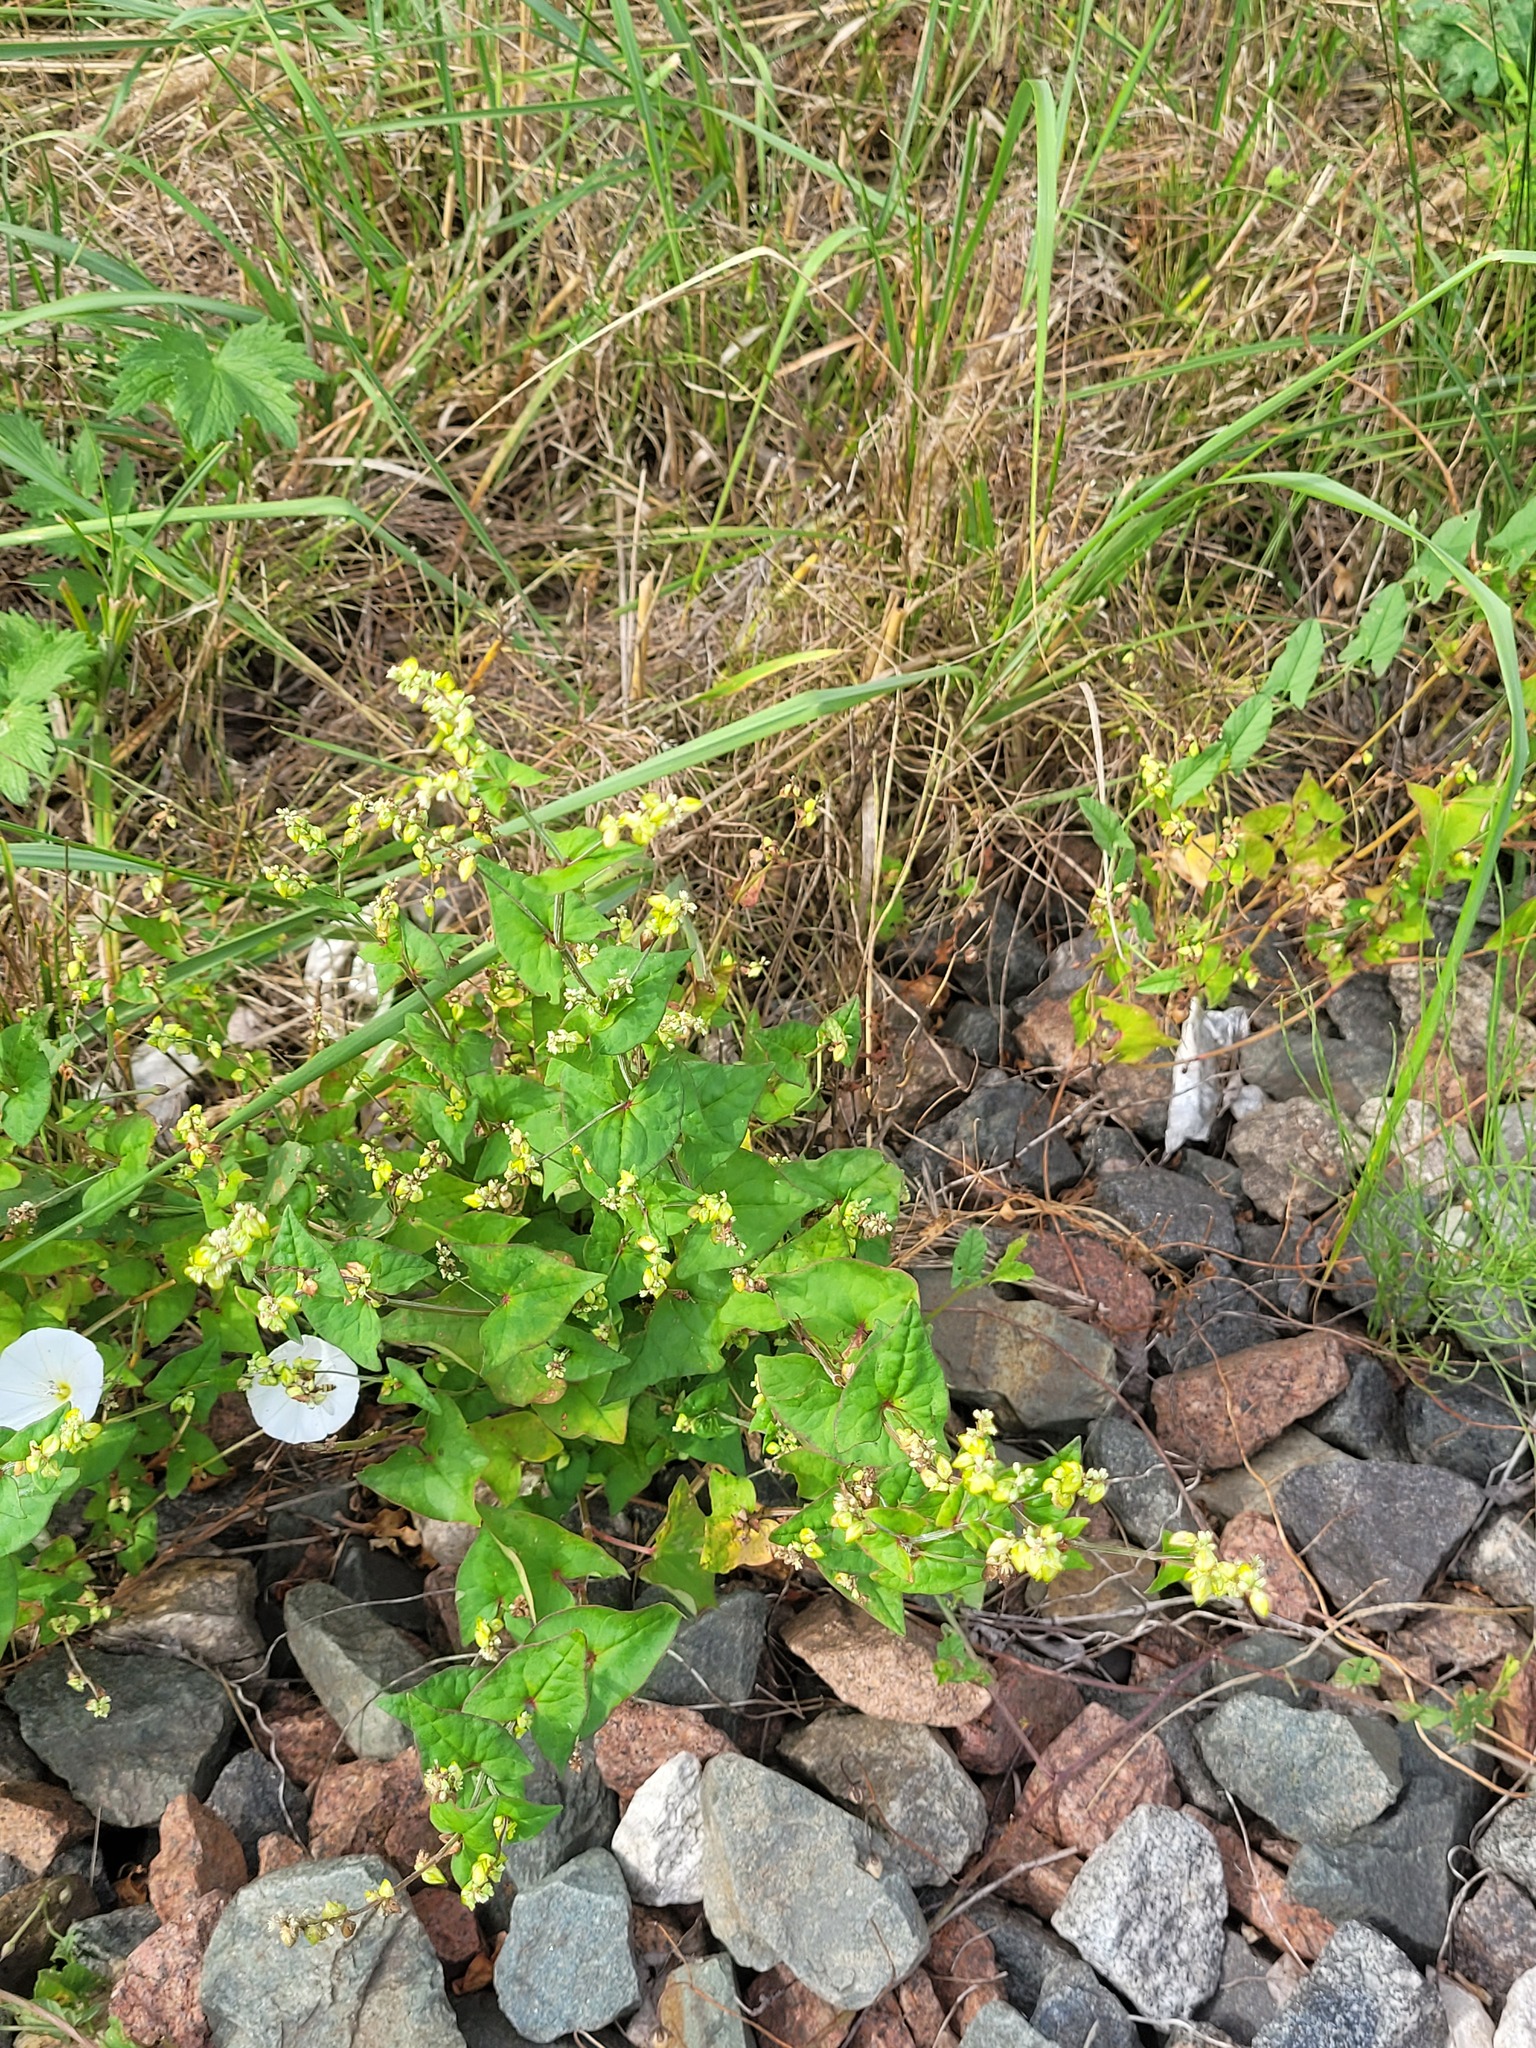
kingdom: Plantae
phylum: Tracheophyta
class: Magnoliopsida
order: Caryophyllales
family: Polygonaceae
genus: Fagopyrum
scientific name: Fagopyrum tataricum
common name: Green buckwheat
